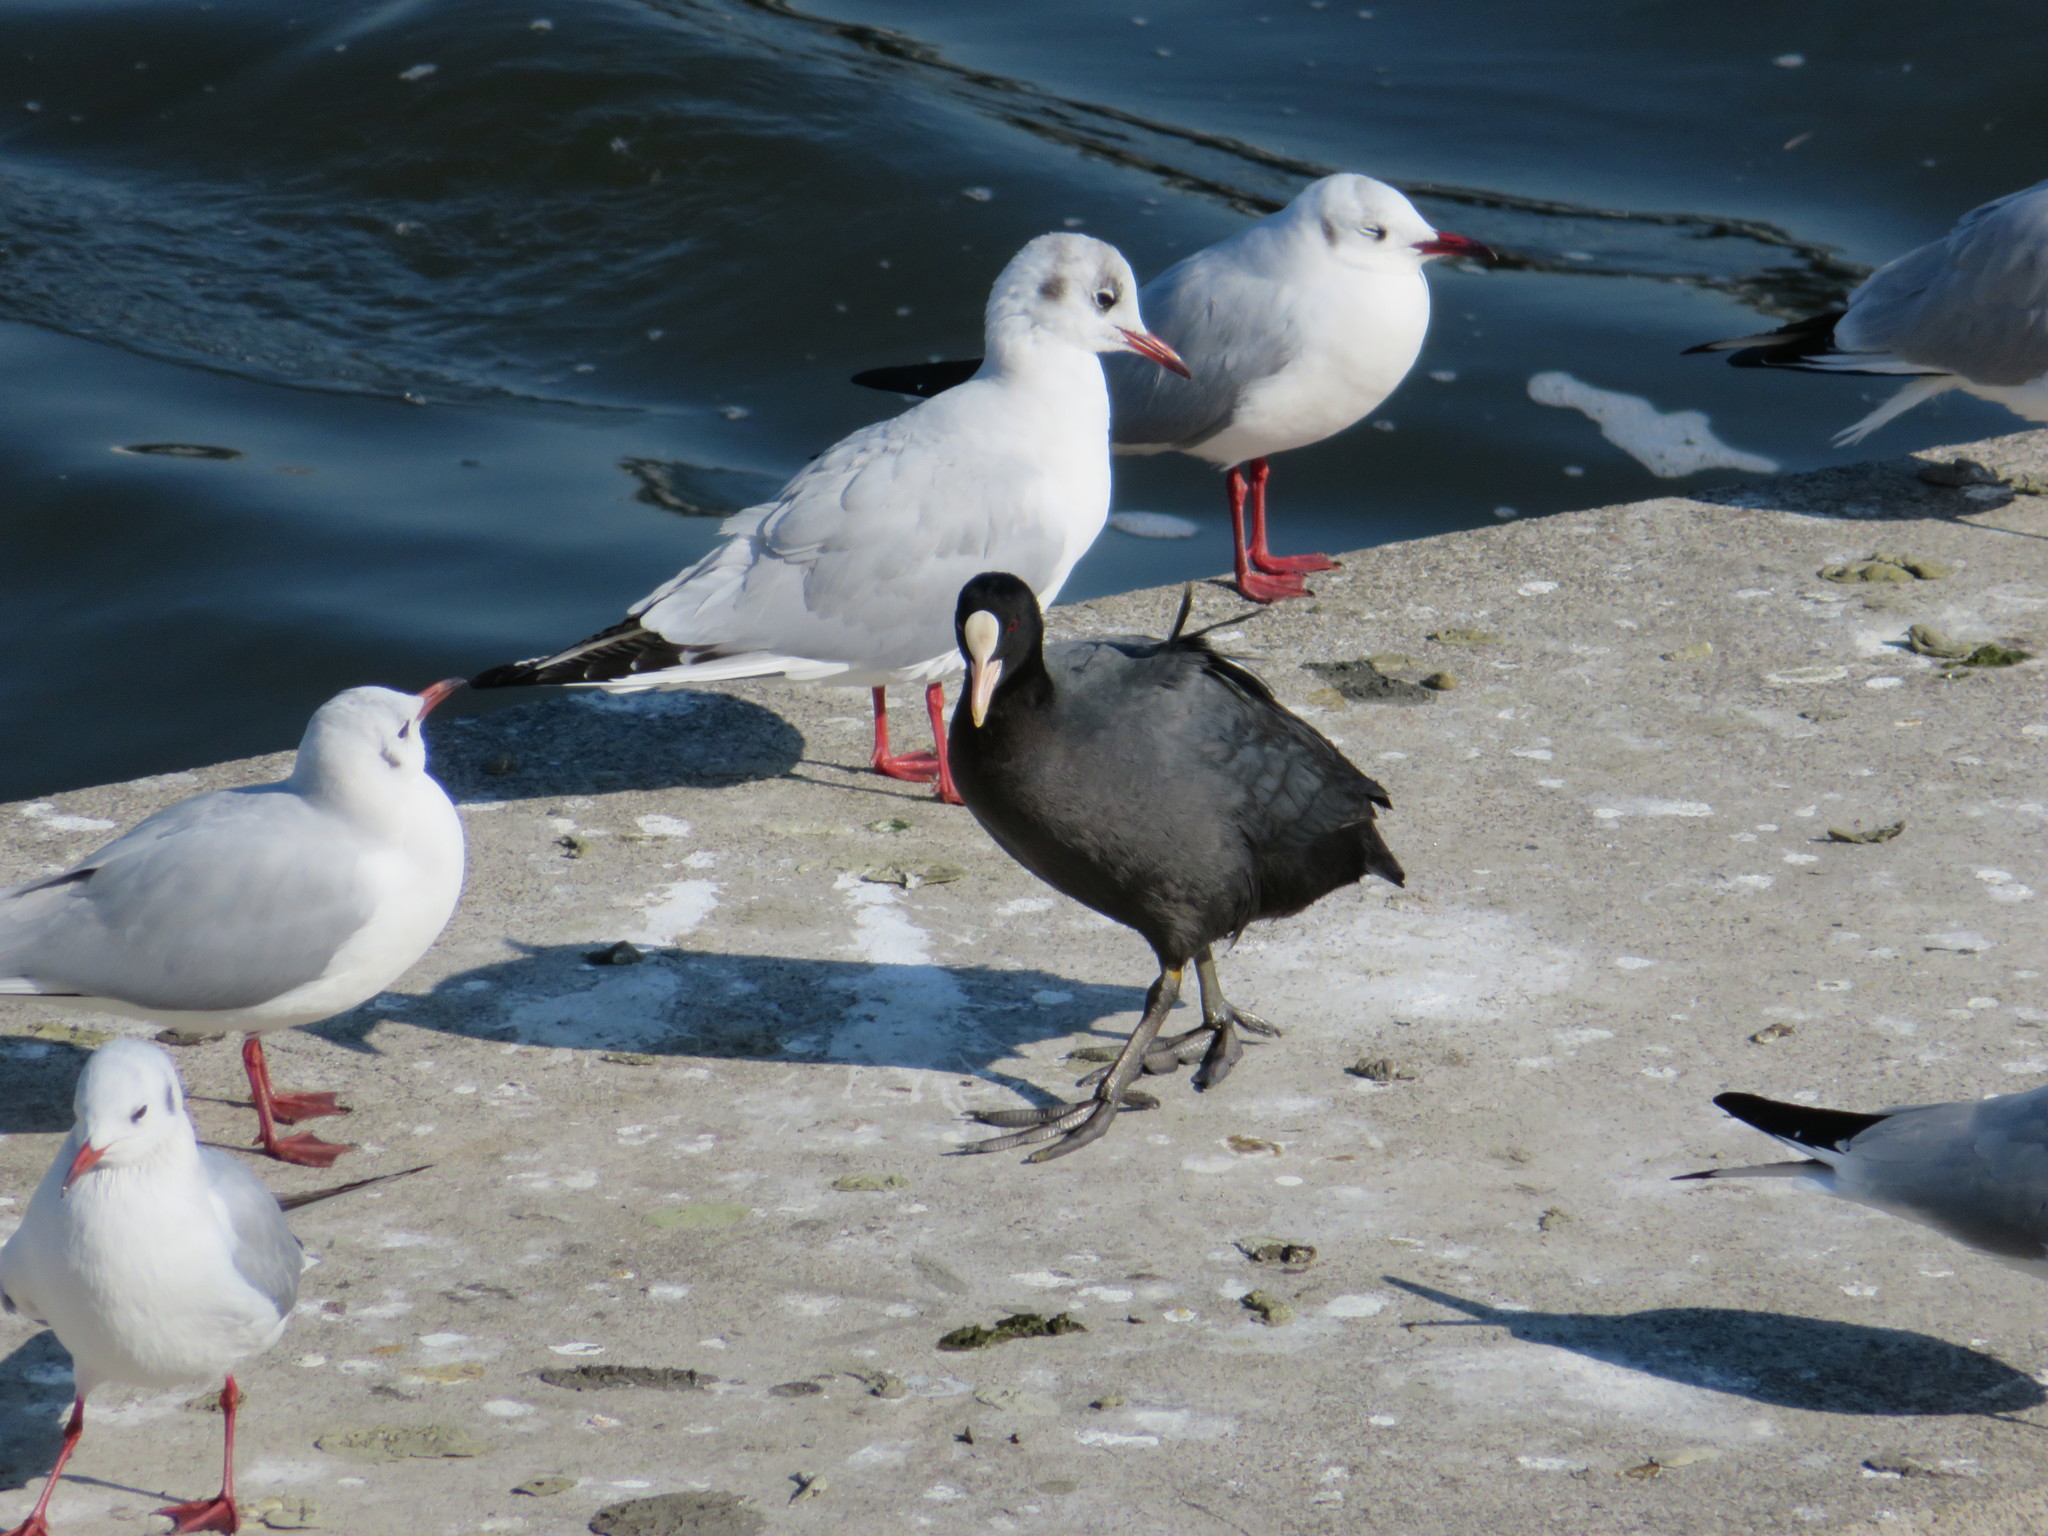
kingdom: Animalia
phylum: Chordata
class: Aves
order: Gruiformes
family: Rallidae
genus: Fulica
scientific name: Fulica atra
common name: Eurasian coot
